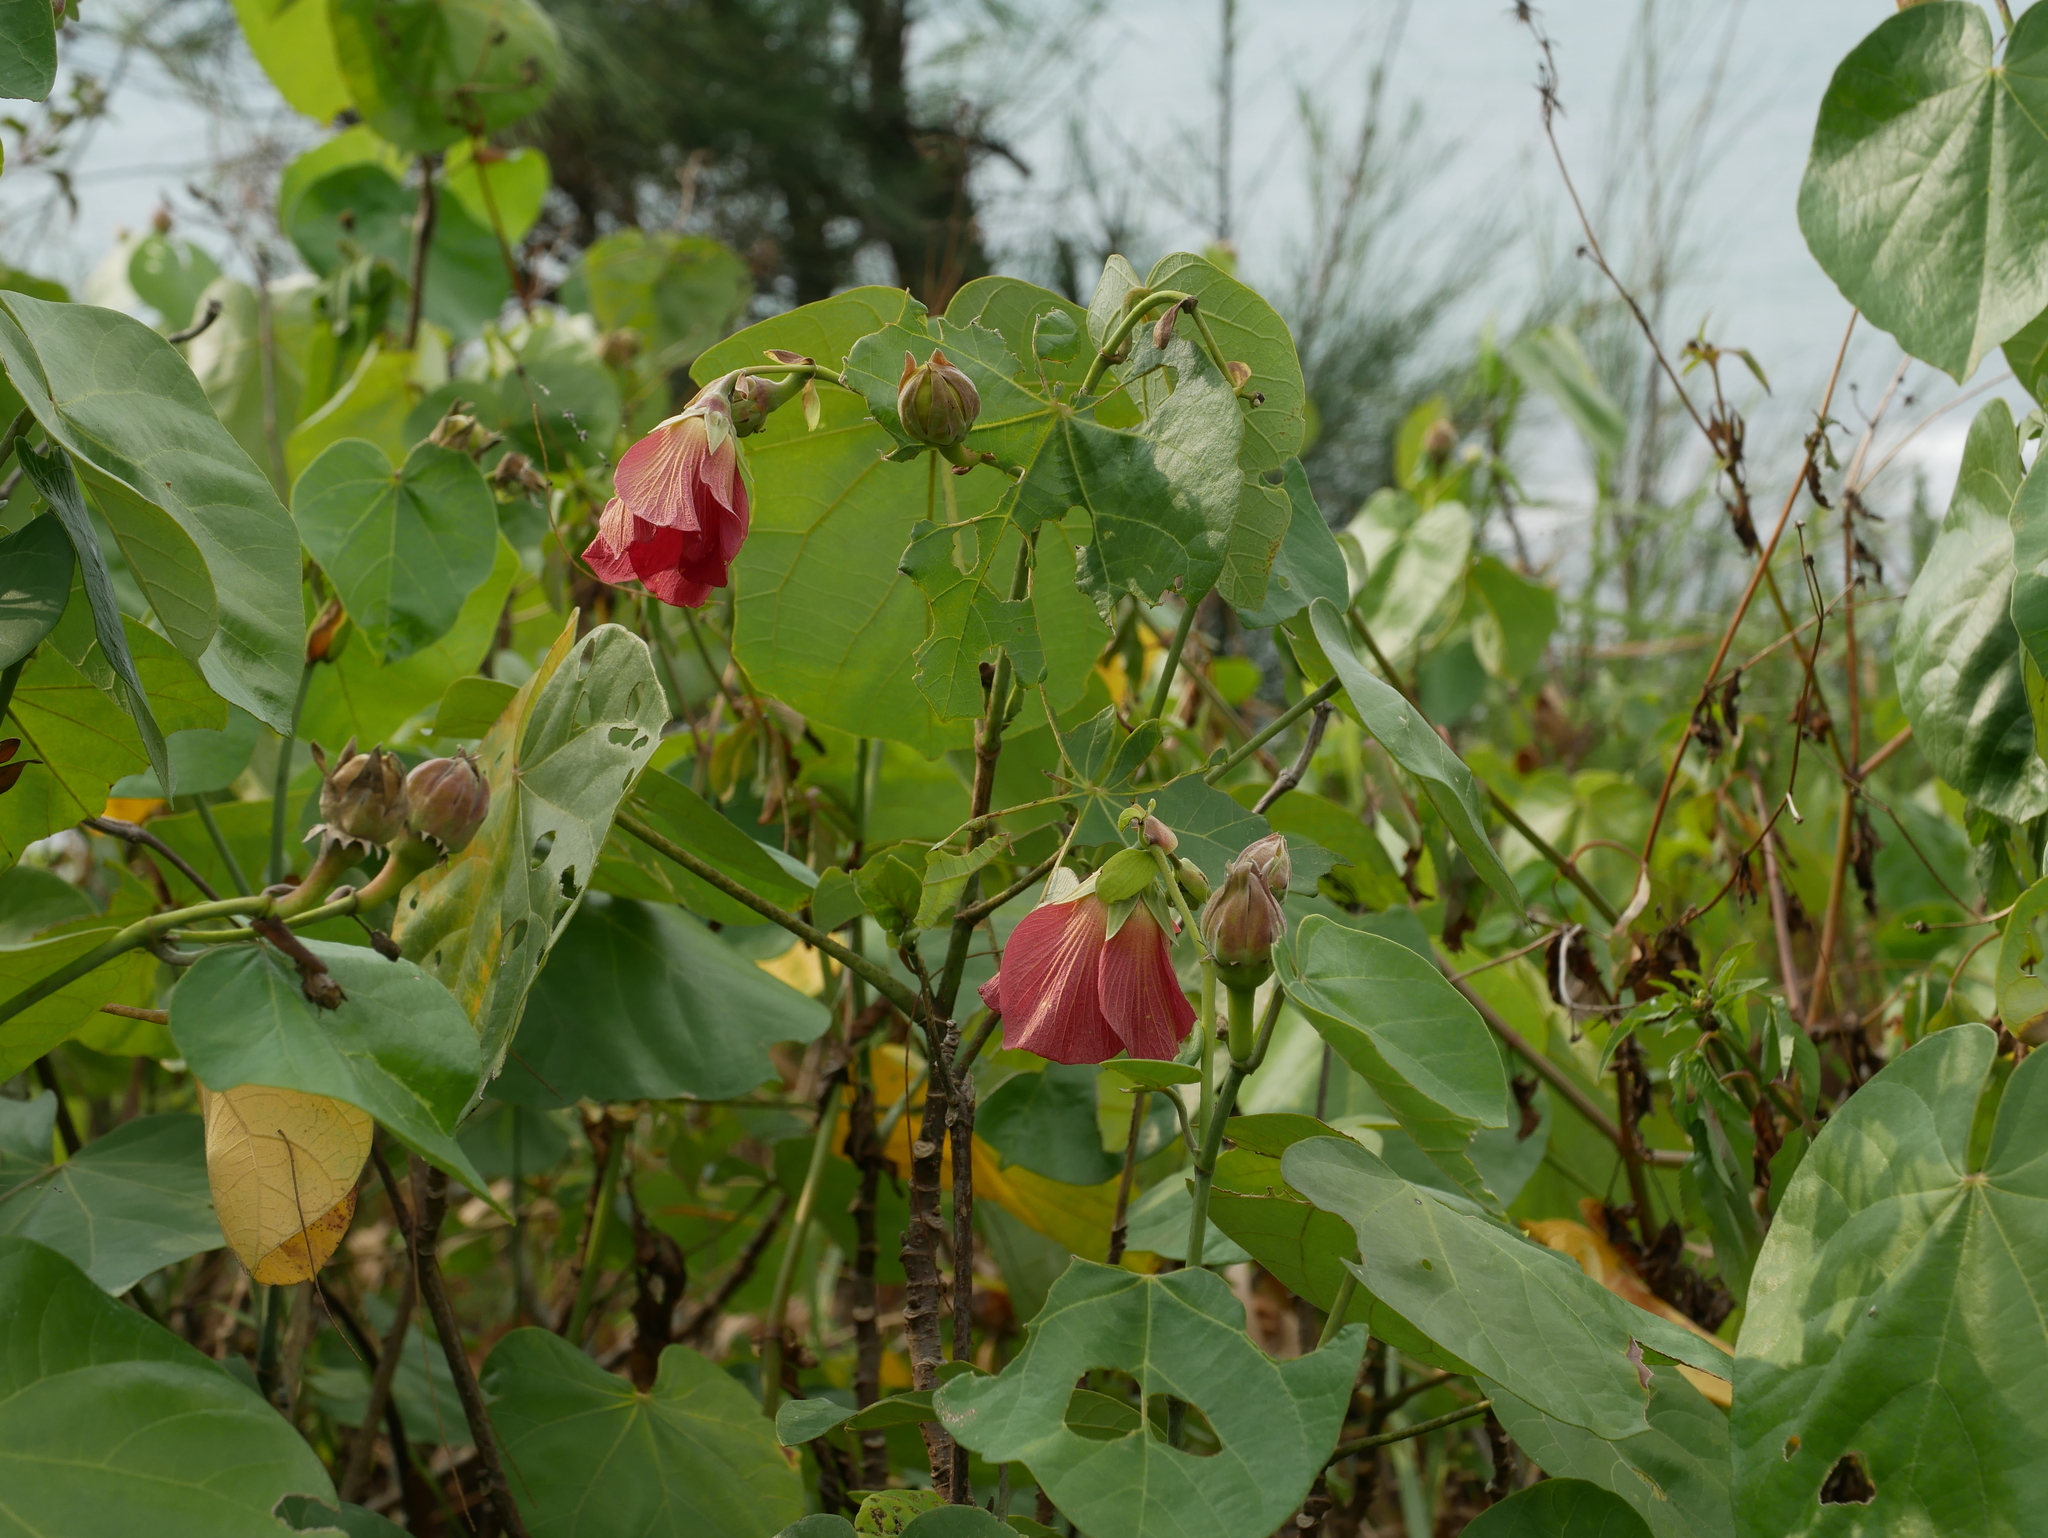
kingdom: Plantae
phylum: Tracheophyta
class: Magnoliopsida
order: Malvales
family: Malvaceae
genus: Talipariti
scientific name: Talipariti tiliaceum
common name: Sea hibiscus
